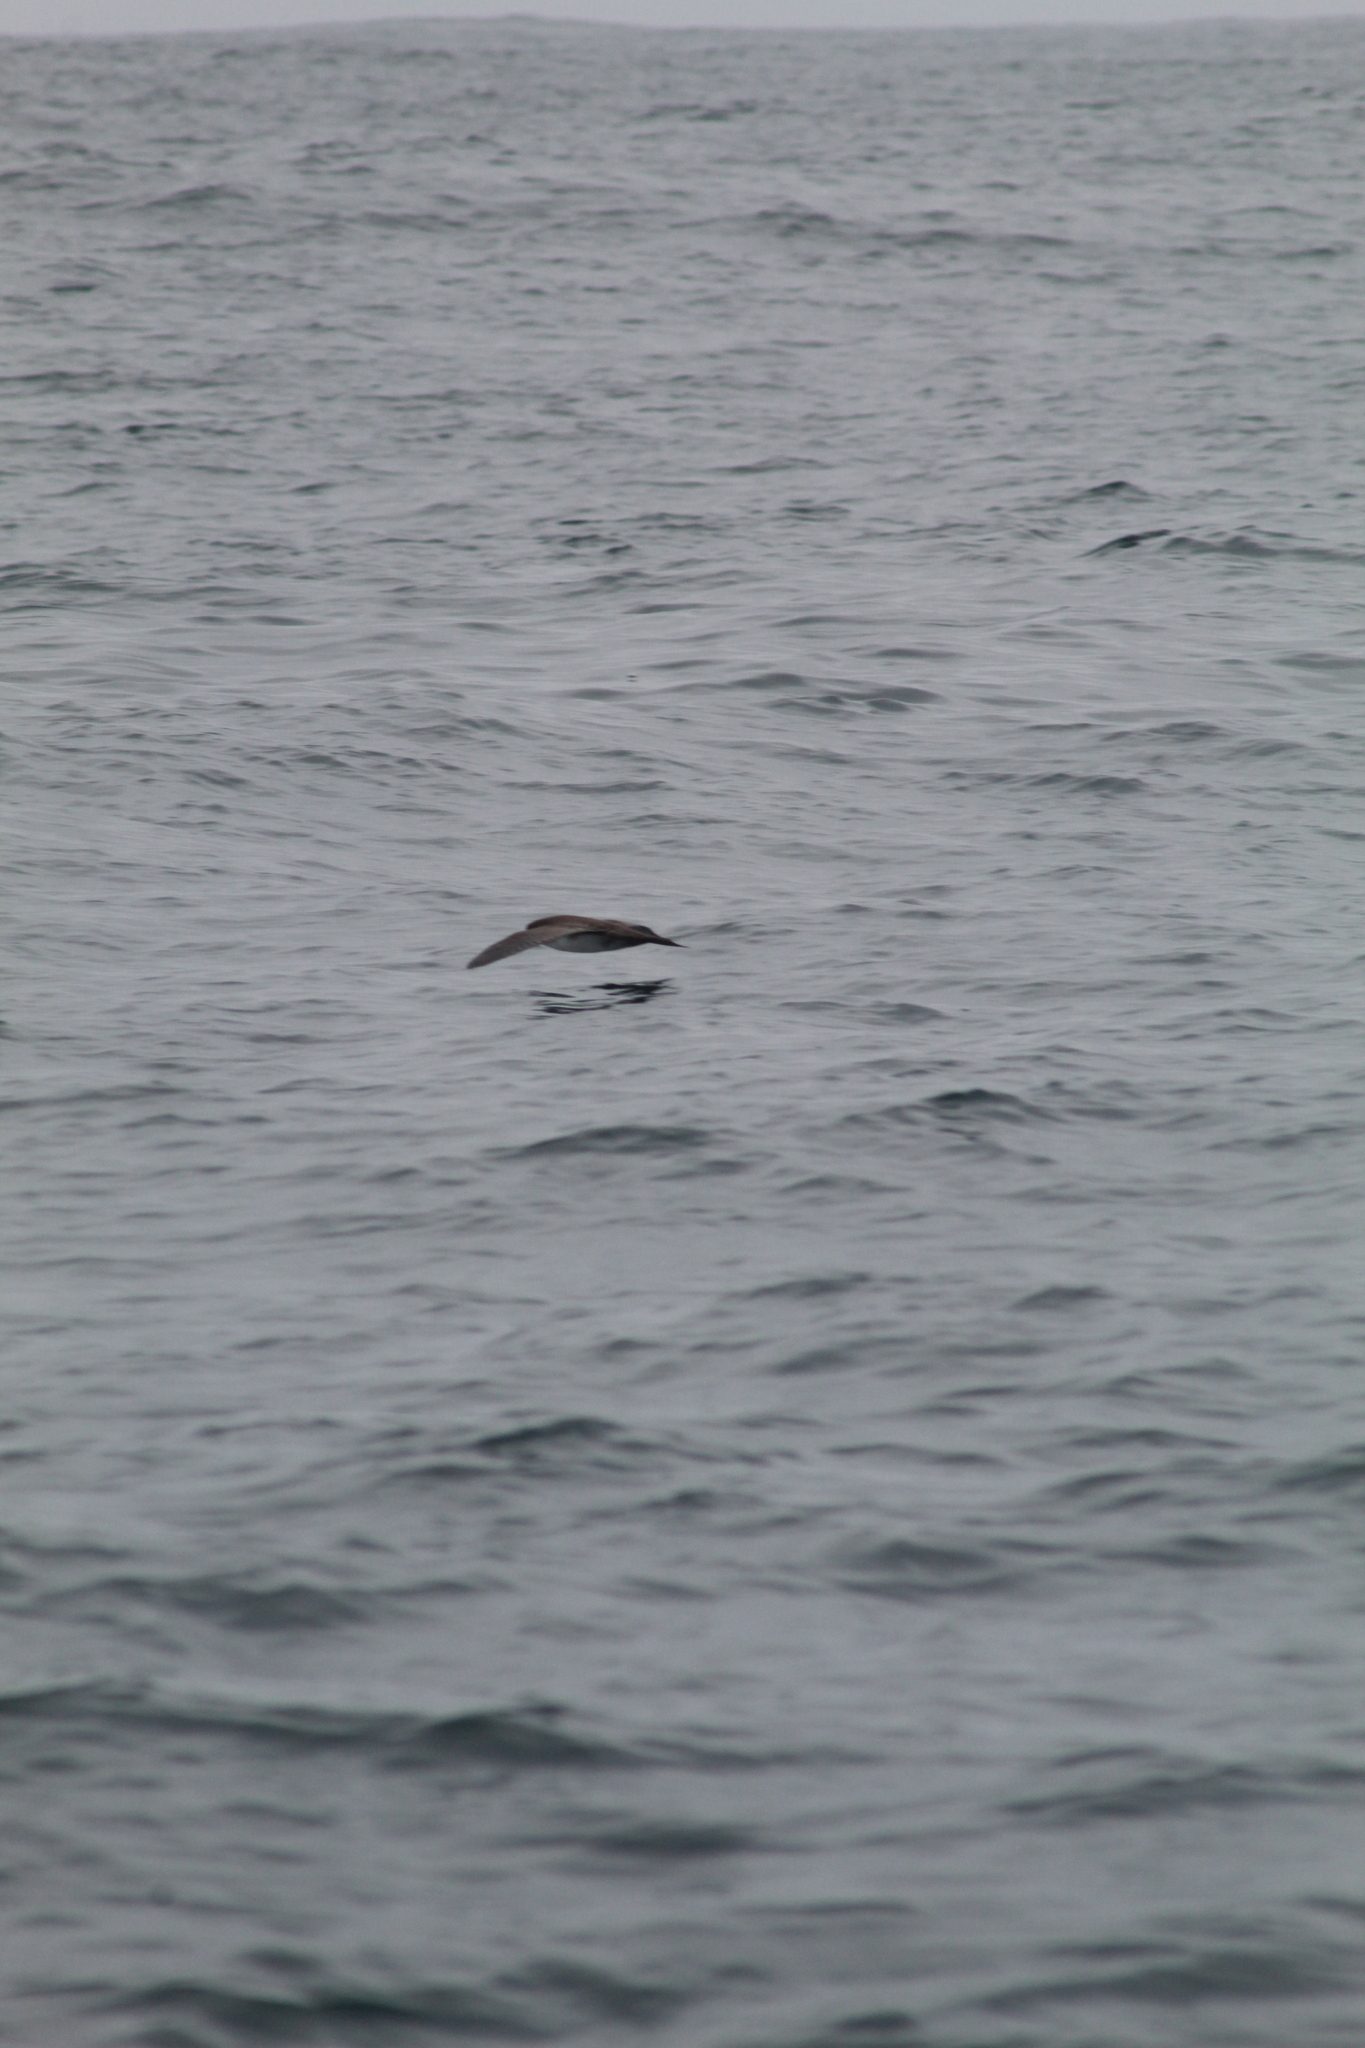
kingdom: Animalia
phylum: Chordata
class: Aves
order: Procellariiformes
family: Procellariidae
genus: Puffinus
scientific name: Puffinus creatopus
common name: Pink-footed shearwater
